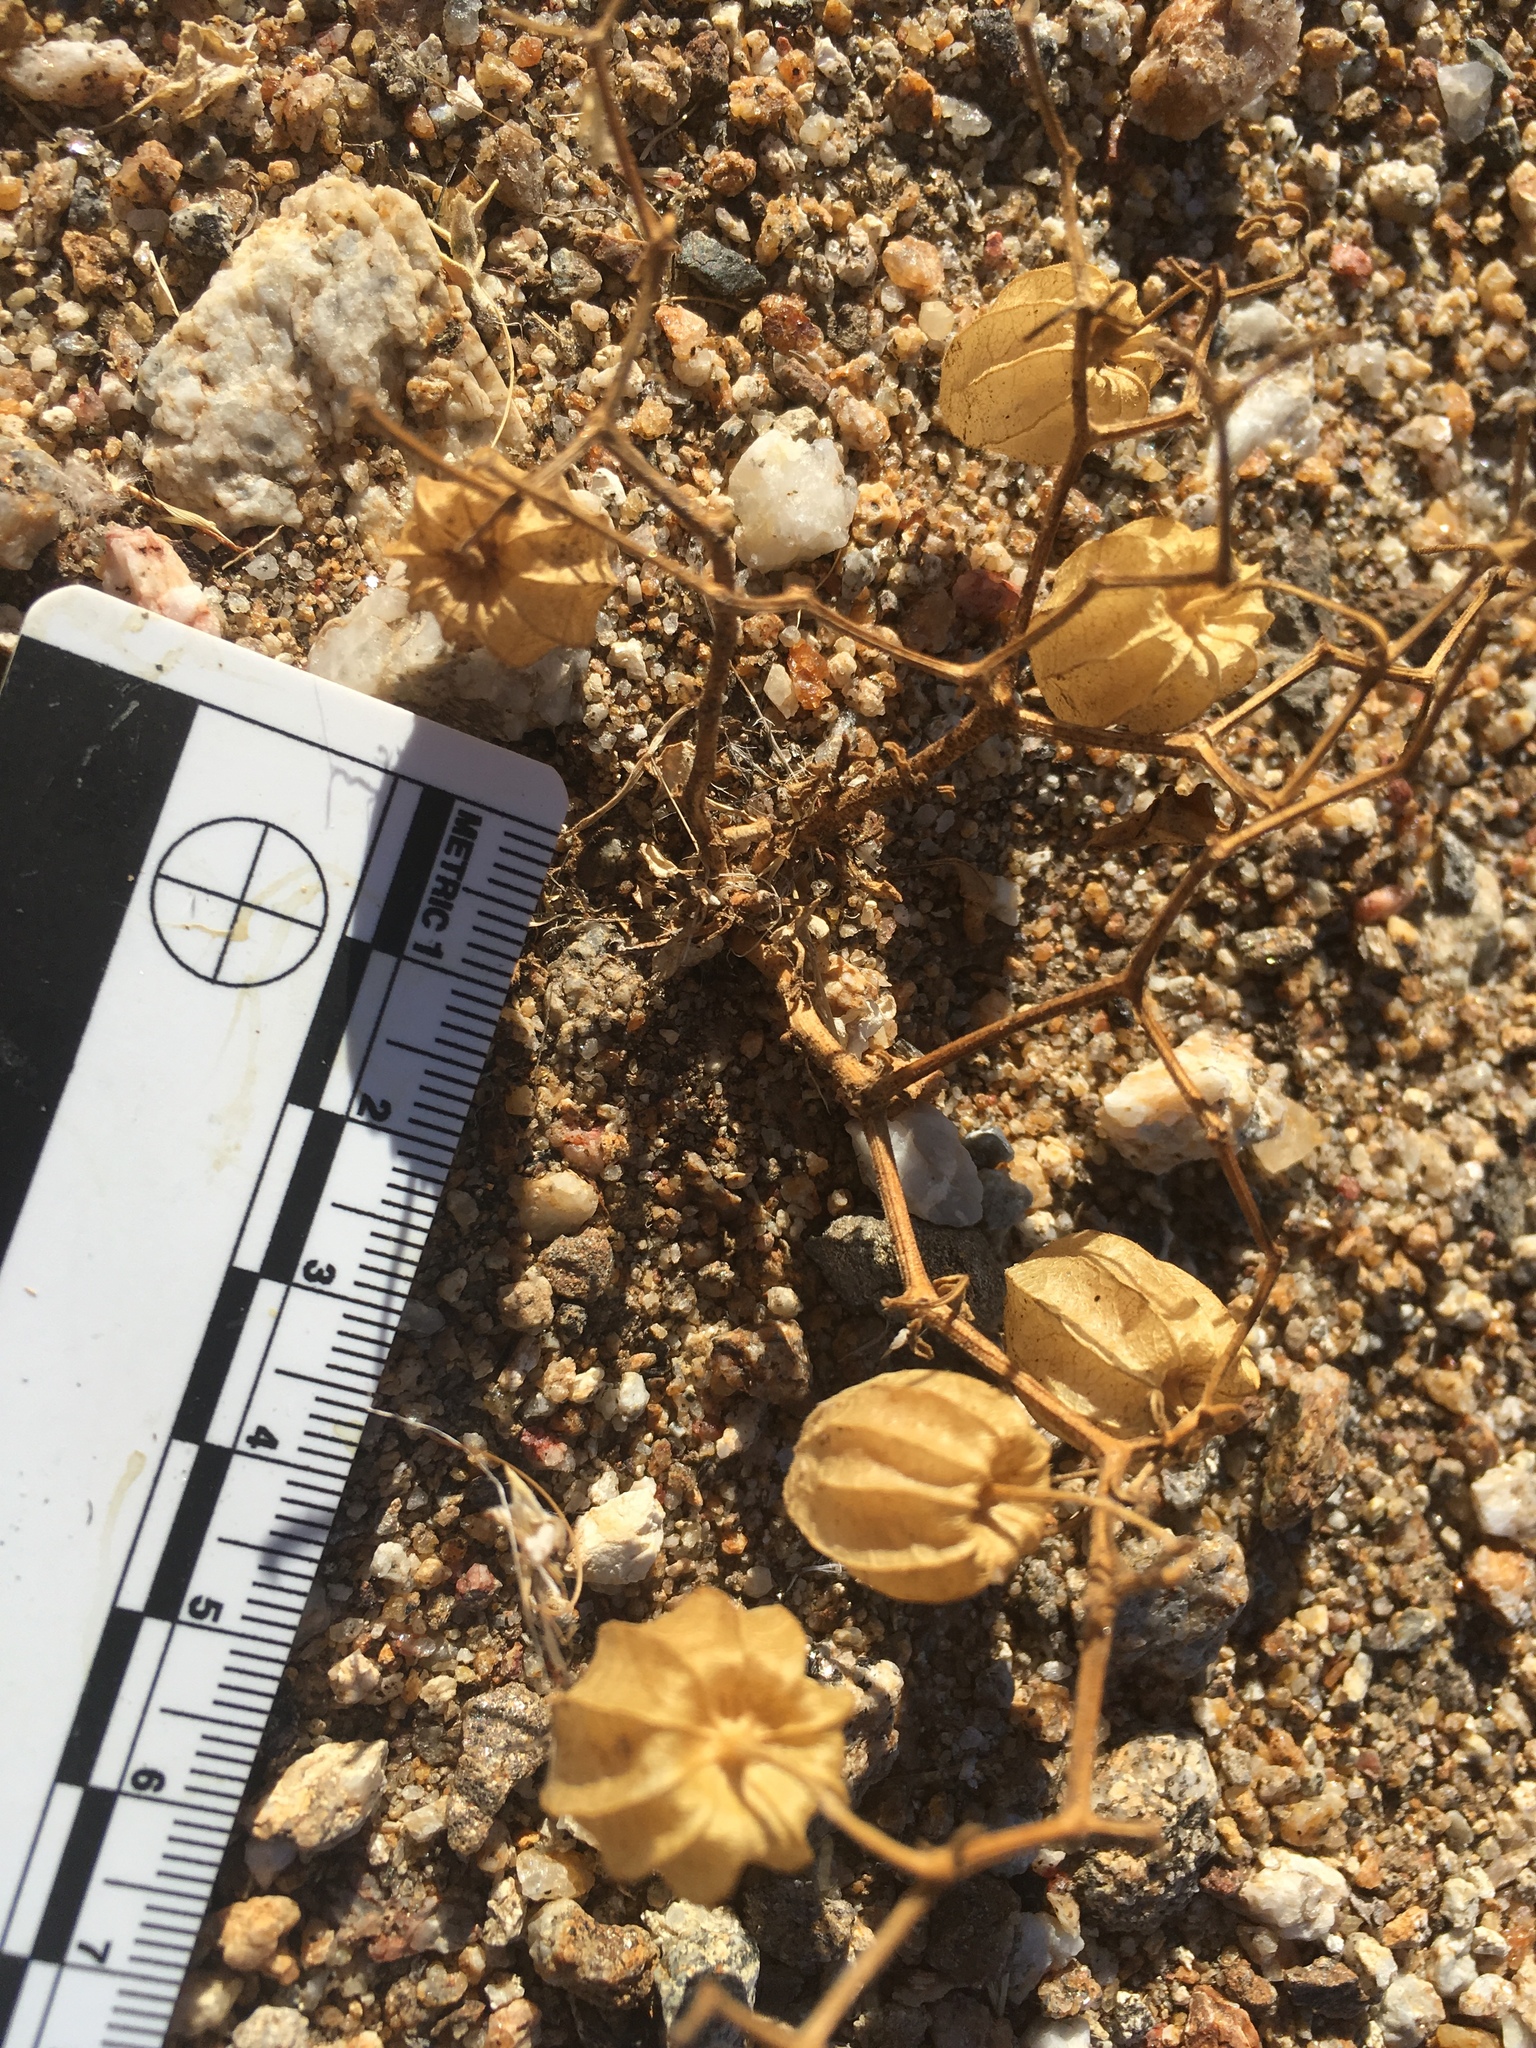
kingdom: Plantae
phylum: Tracheophyta
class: Magnoliopsida
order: Solanales
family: Solanaceae
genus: Physalis
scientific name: Physalis crassifolia
